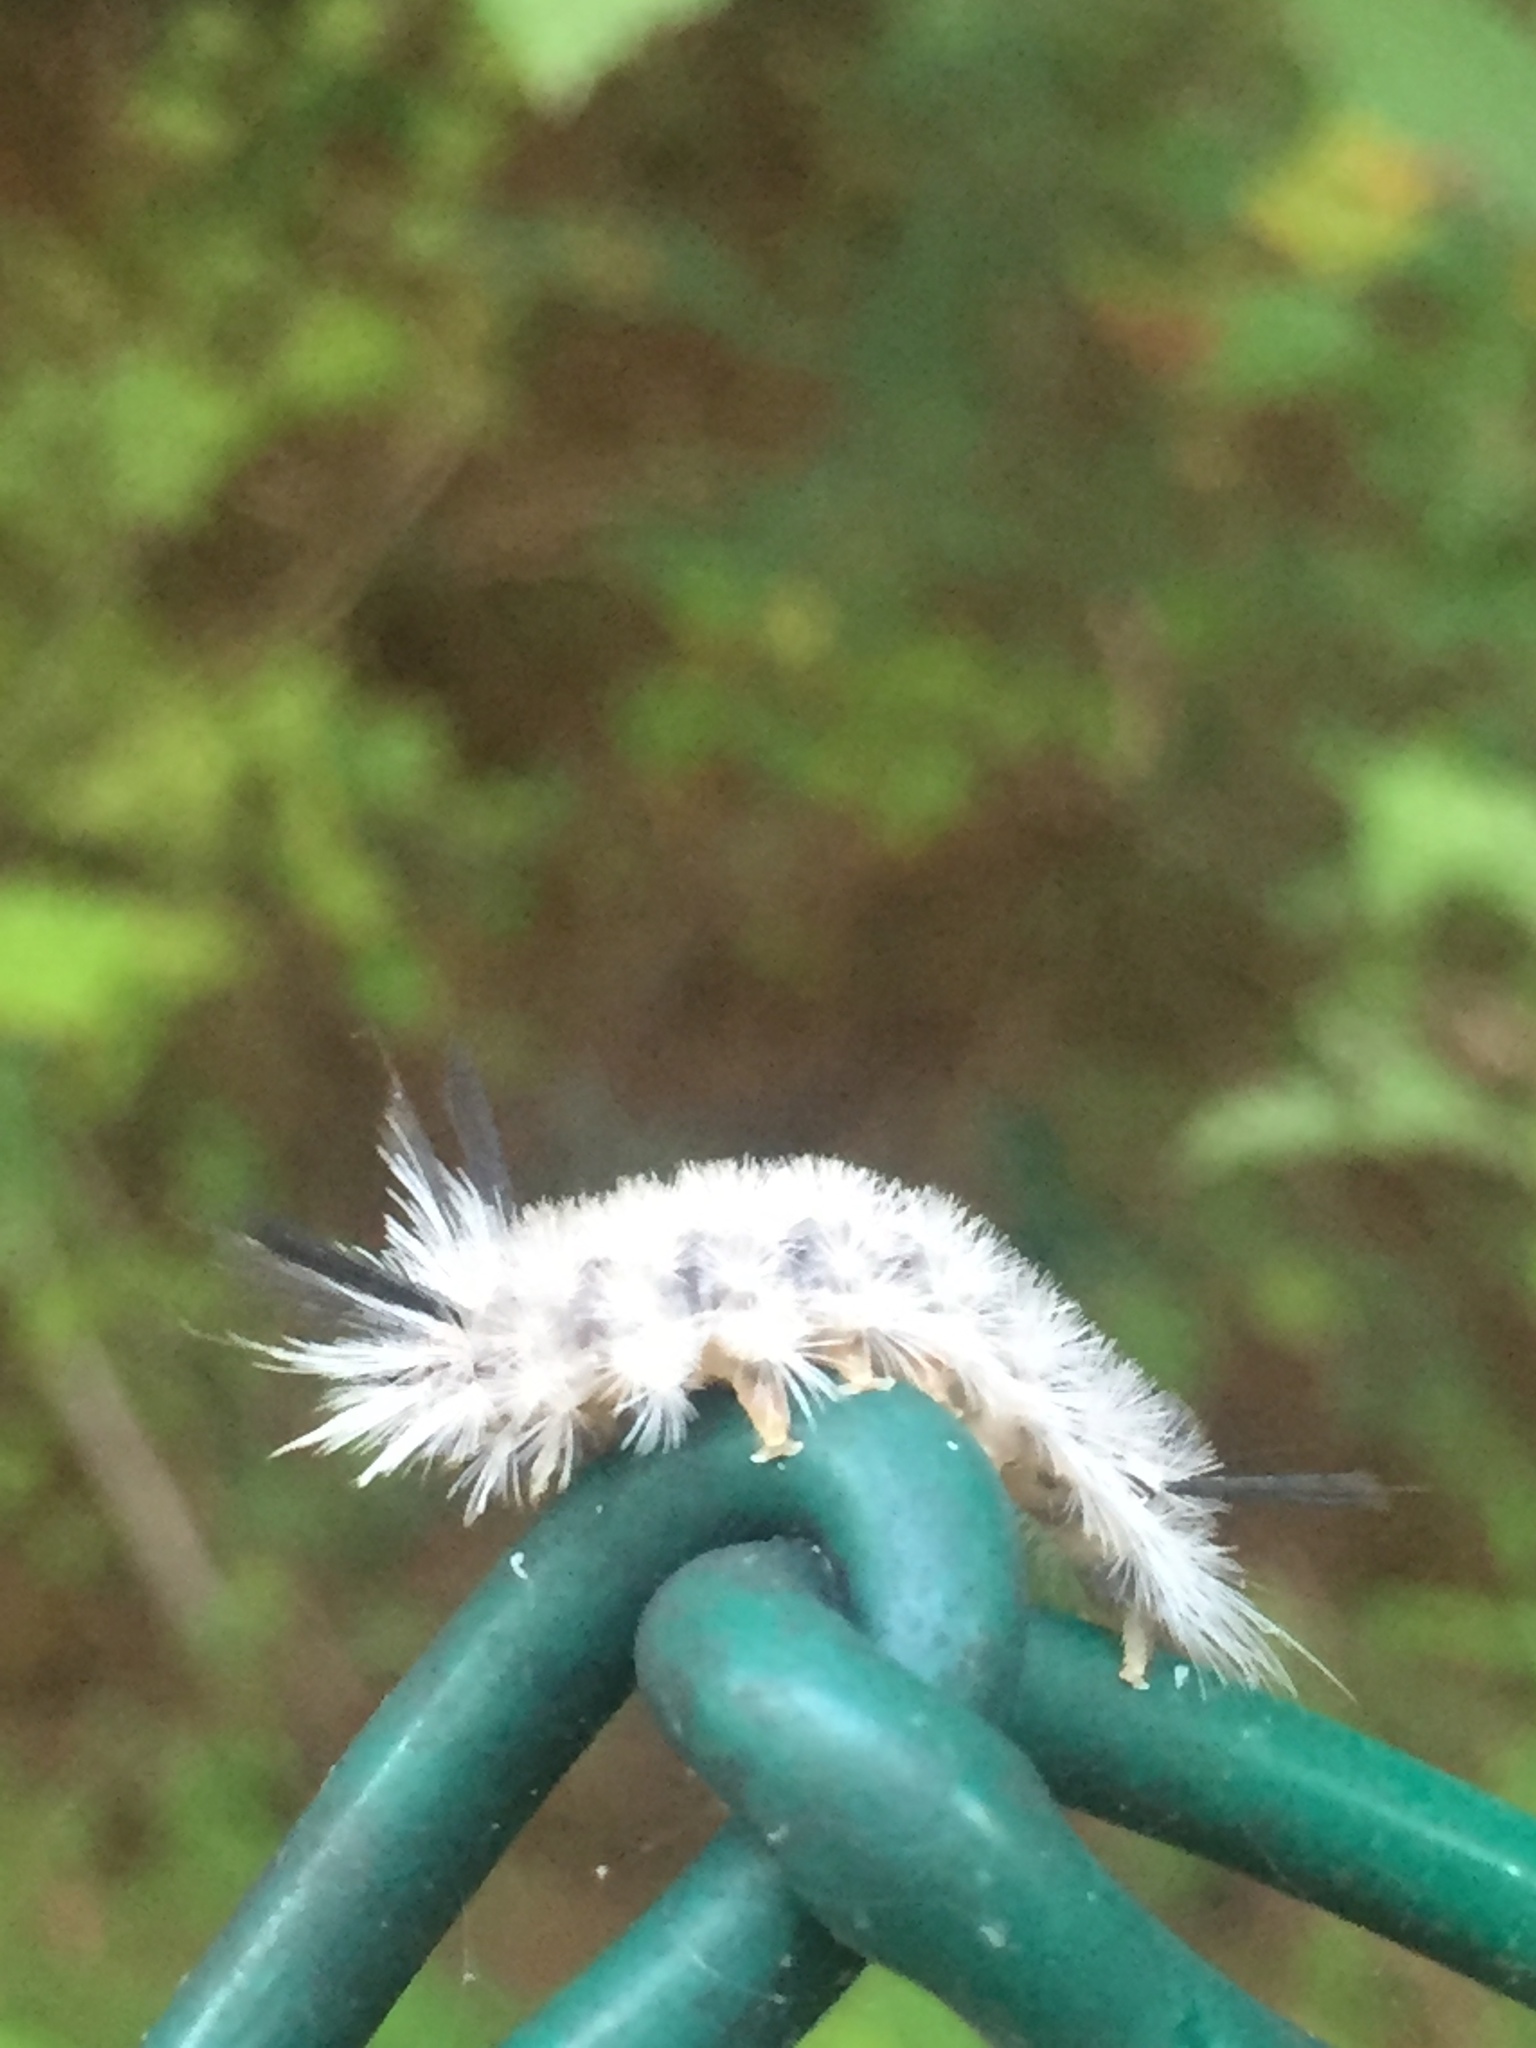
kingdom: Animalia
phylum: Arthropoda
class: Insecta
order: Lepidoptera
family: Erebidae
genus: Halysidota
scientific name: Halysidota tessellaris
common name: Banded tussock moth
